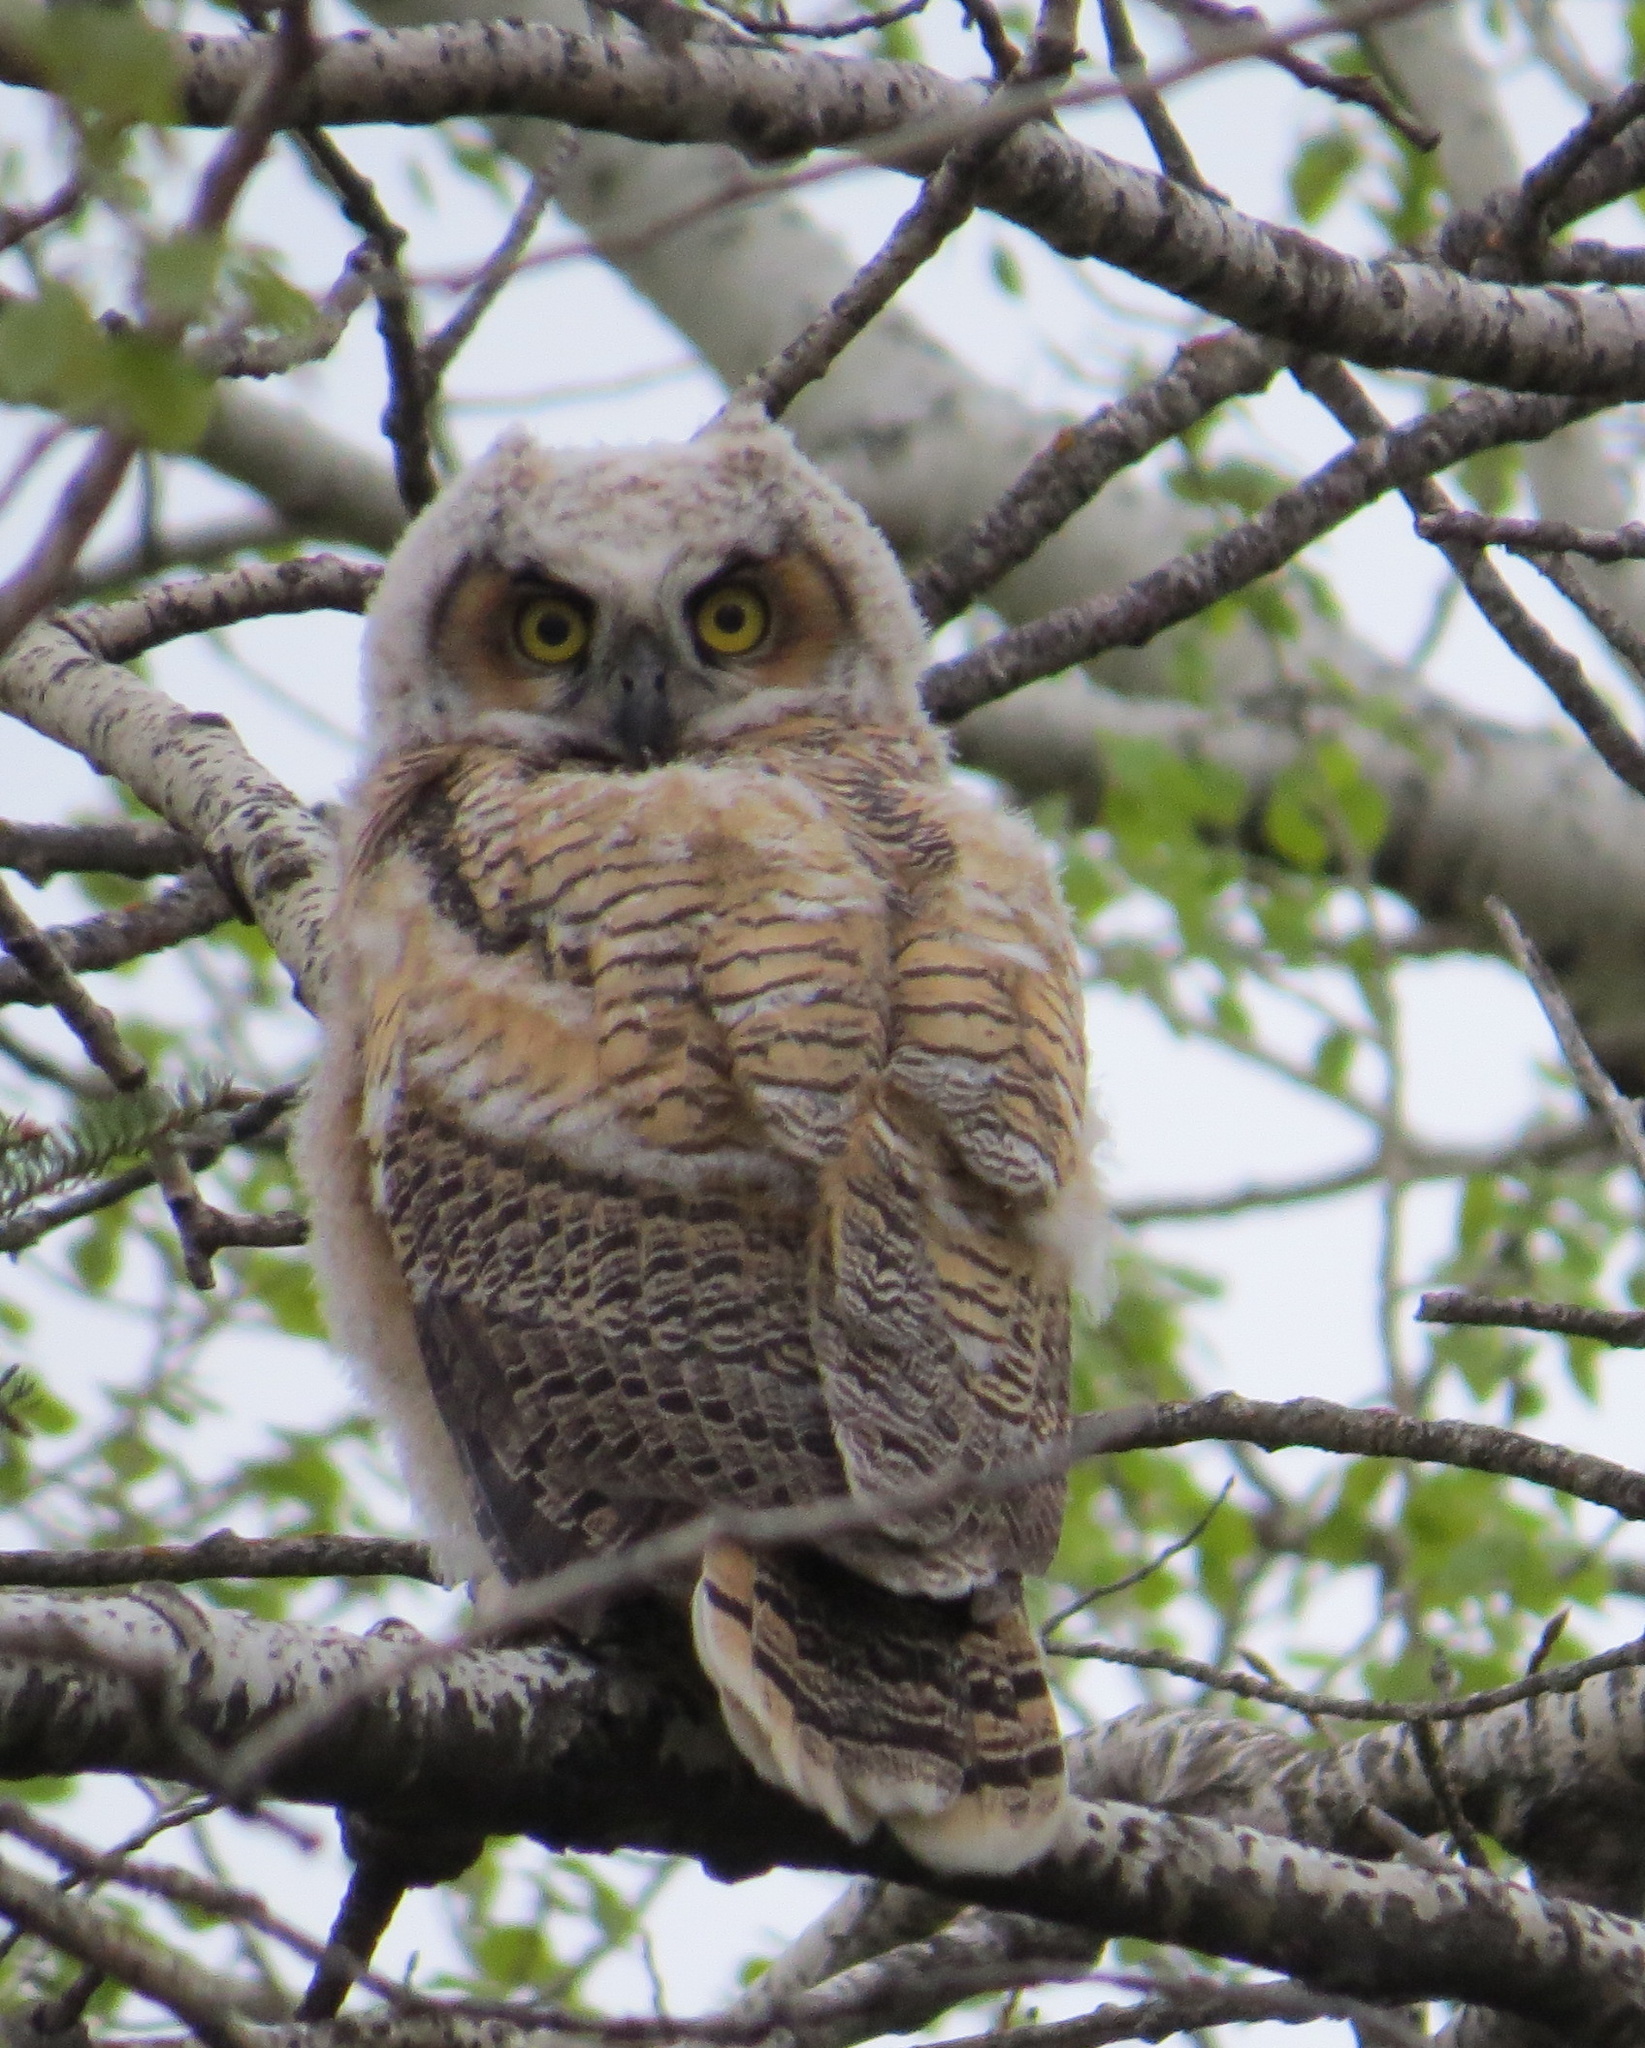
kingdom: Animalia
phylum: Chordata
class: Aves
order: Strigiformes
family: Strigidae
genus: Bubo
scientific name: Bubo virginianus
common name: Great horned owl
